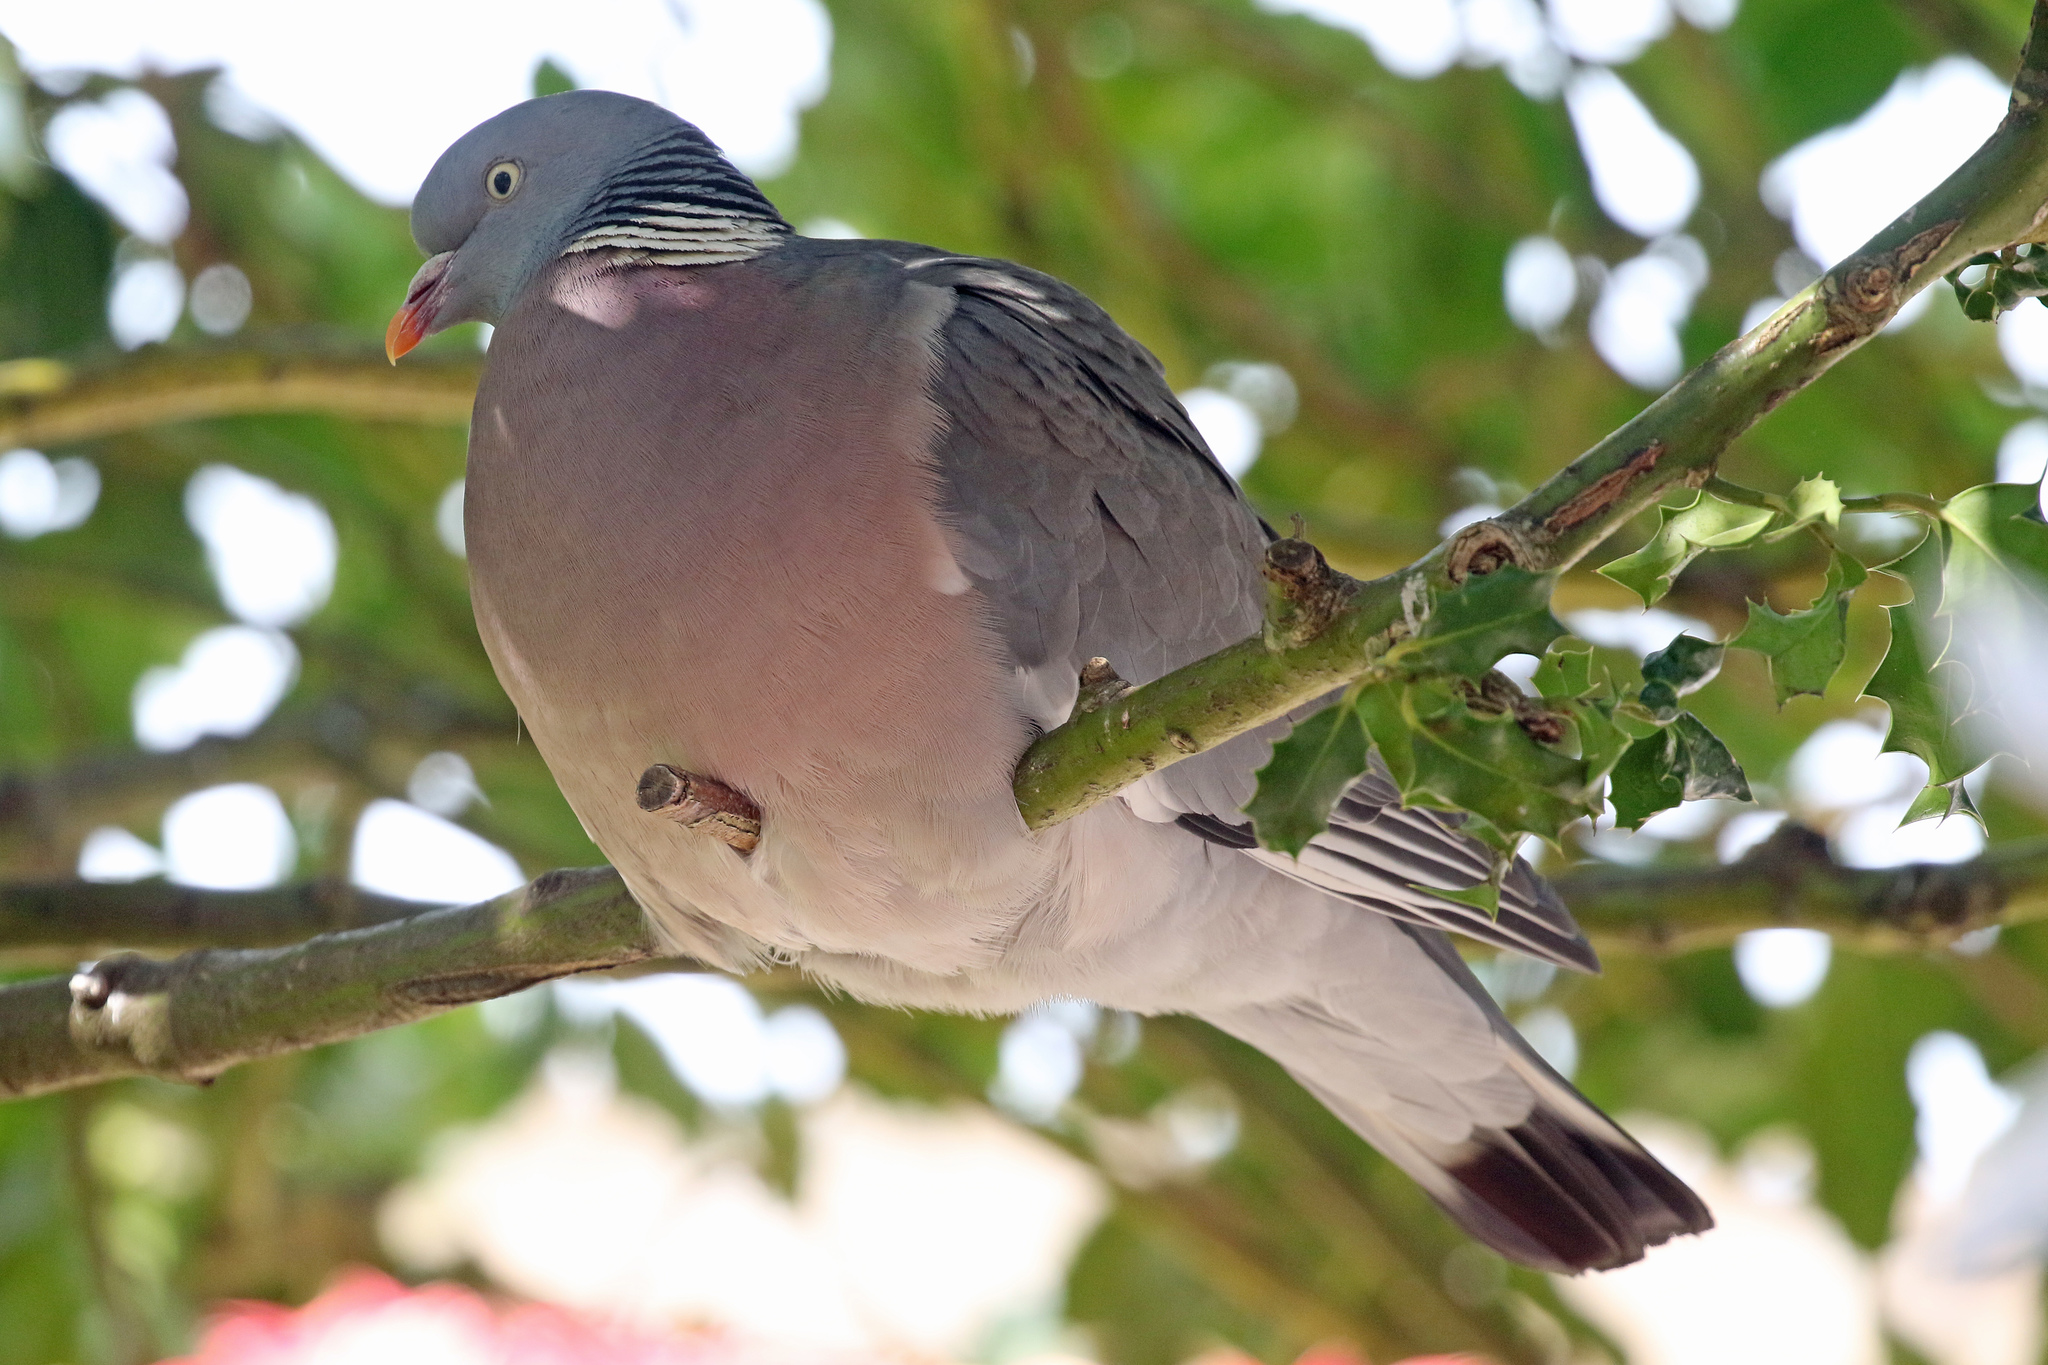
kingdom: Animalia
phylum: Chordata
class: Aves
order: Columbiformes
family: Columbidae
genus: Columba
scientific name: Columba palumbus
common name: Common wood pigeon
